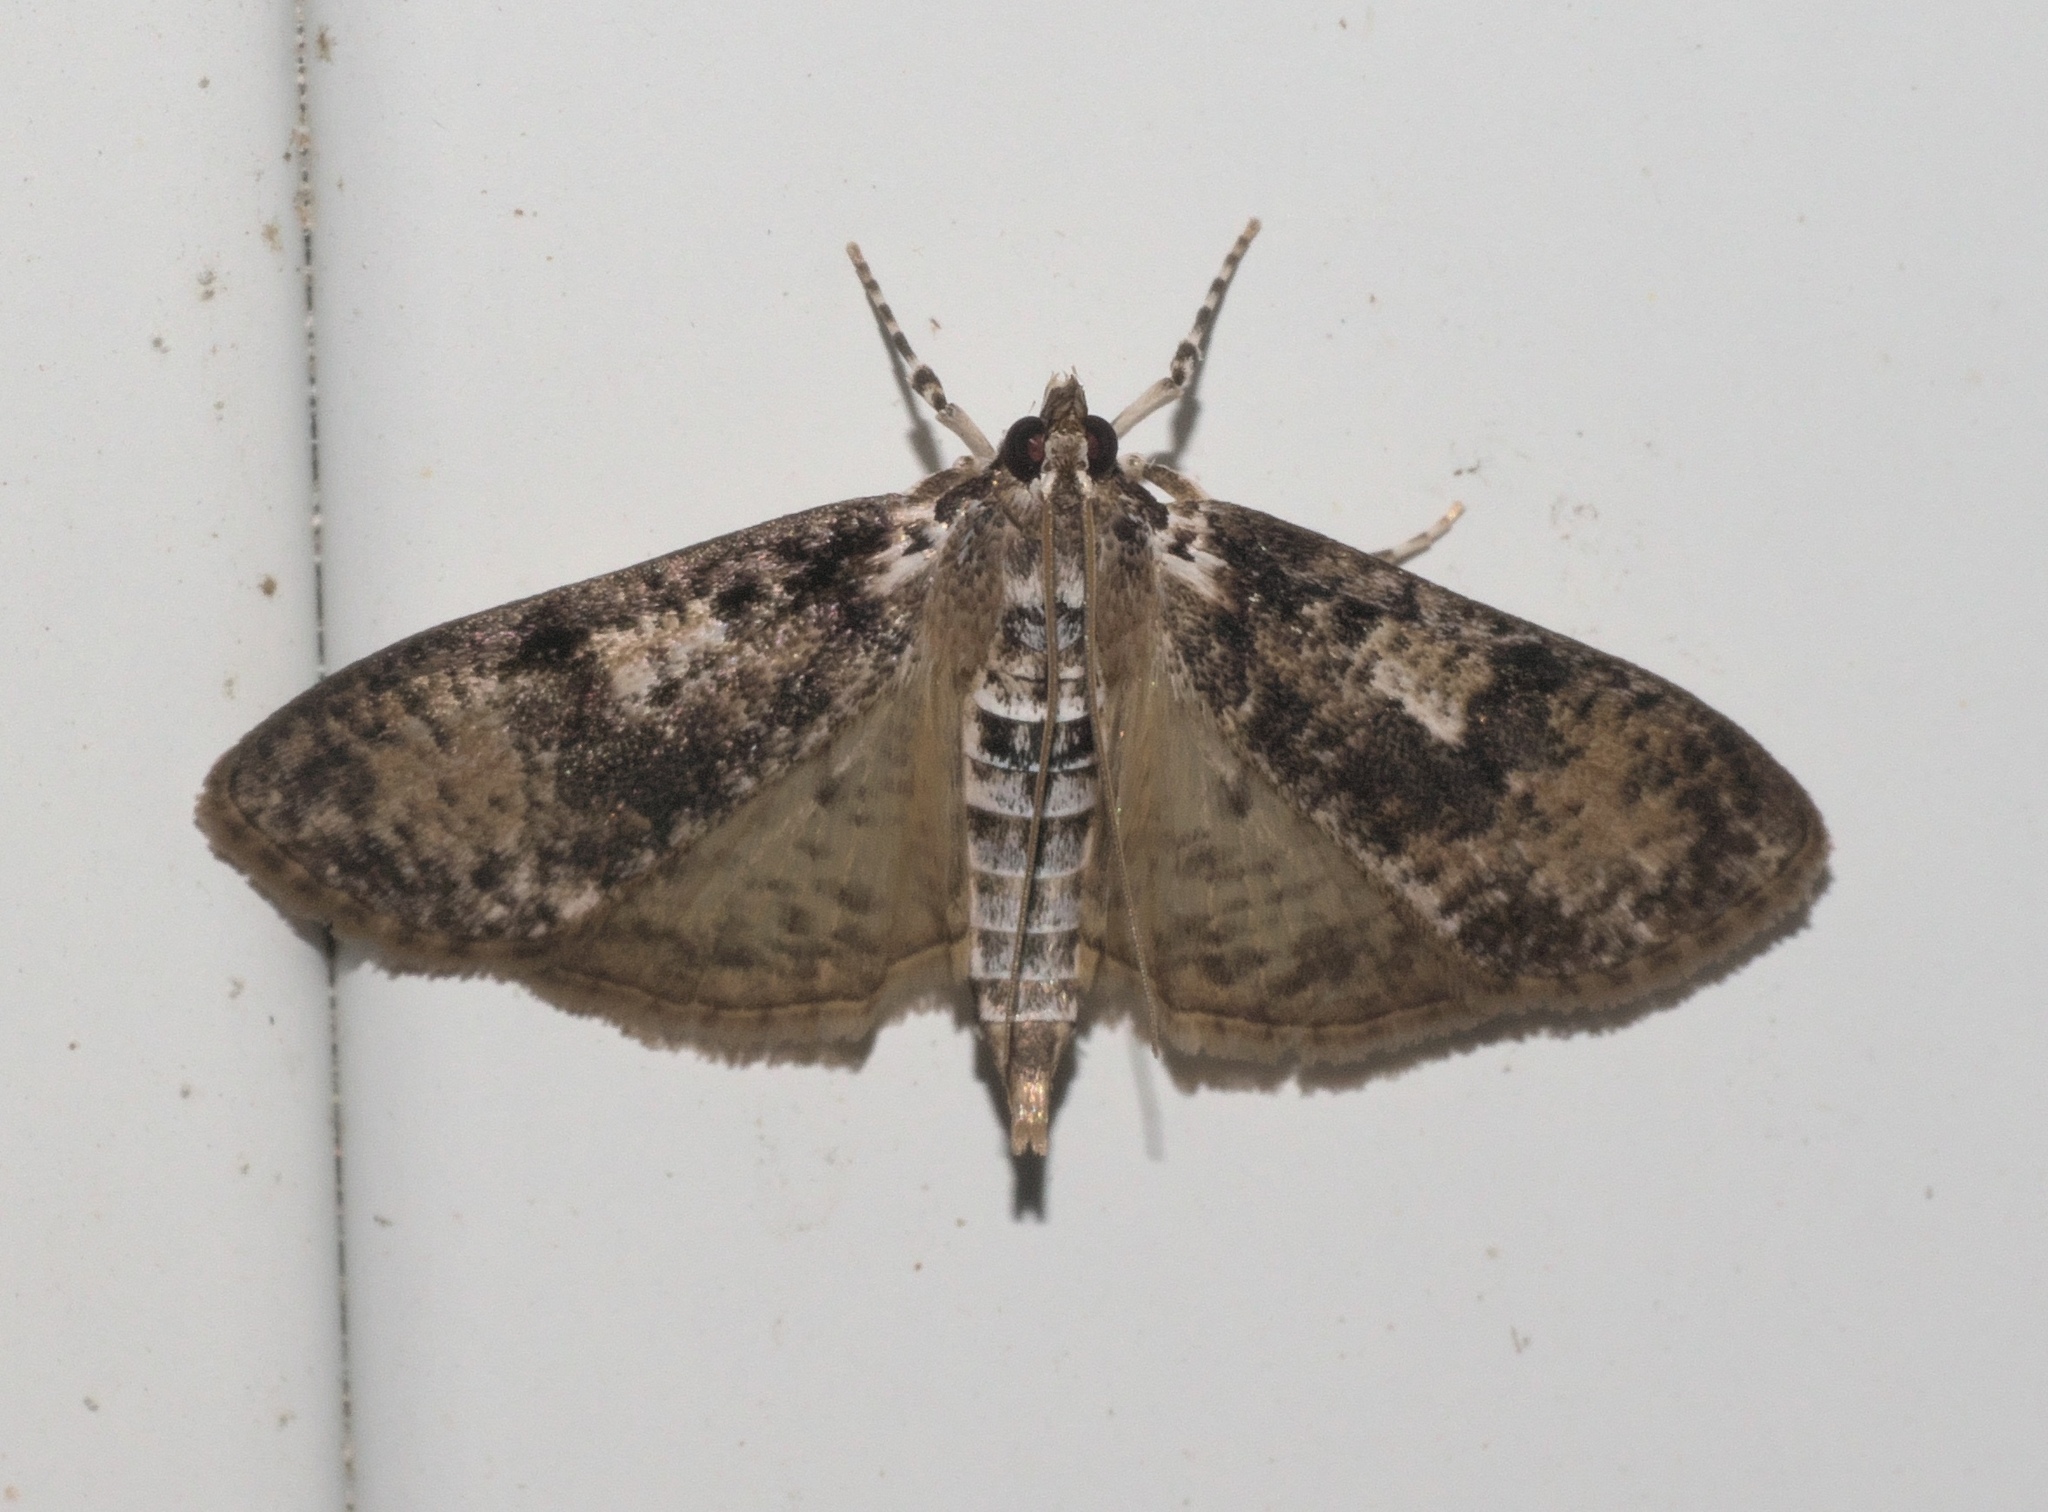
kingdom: Animalia
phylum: Arthropoda
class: Insecta
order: Lepidoptera
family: Crambidae
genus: Palpita
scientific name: Palpita magniferalis
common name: Splendid palpita moth
